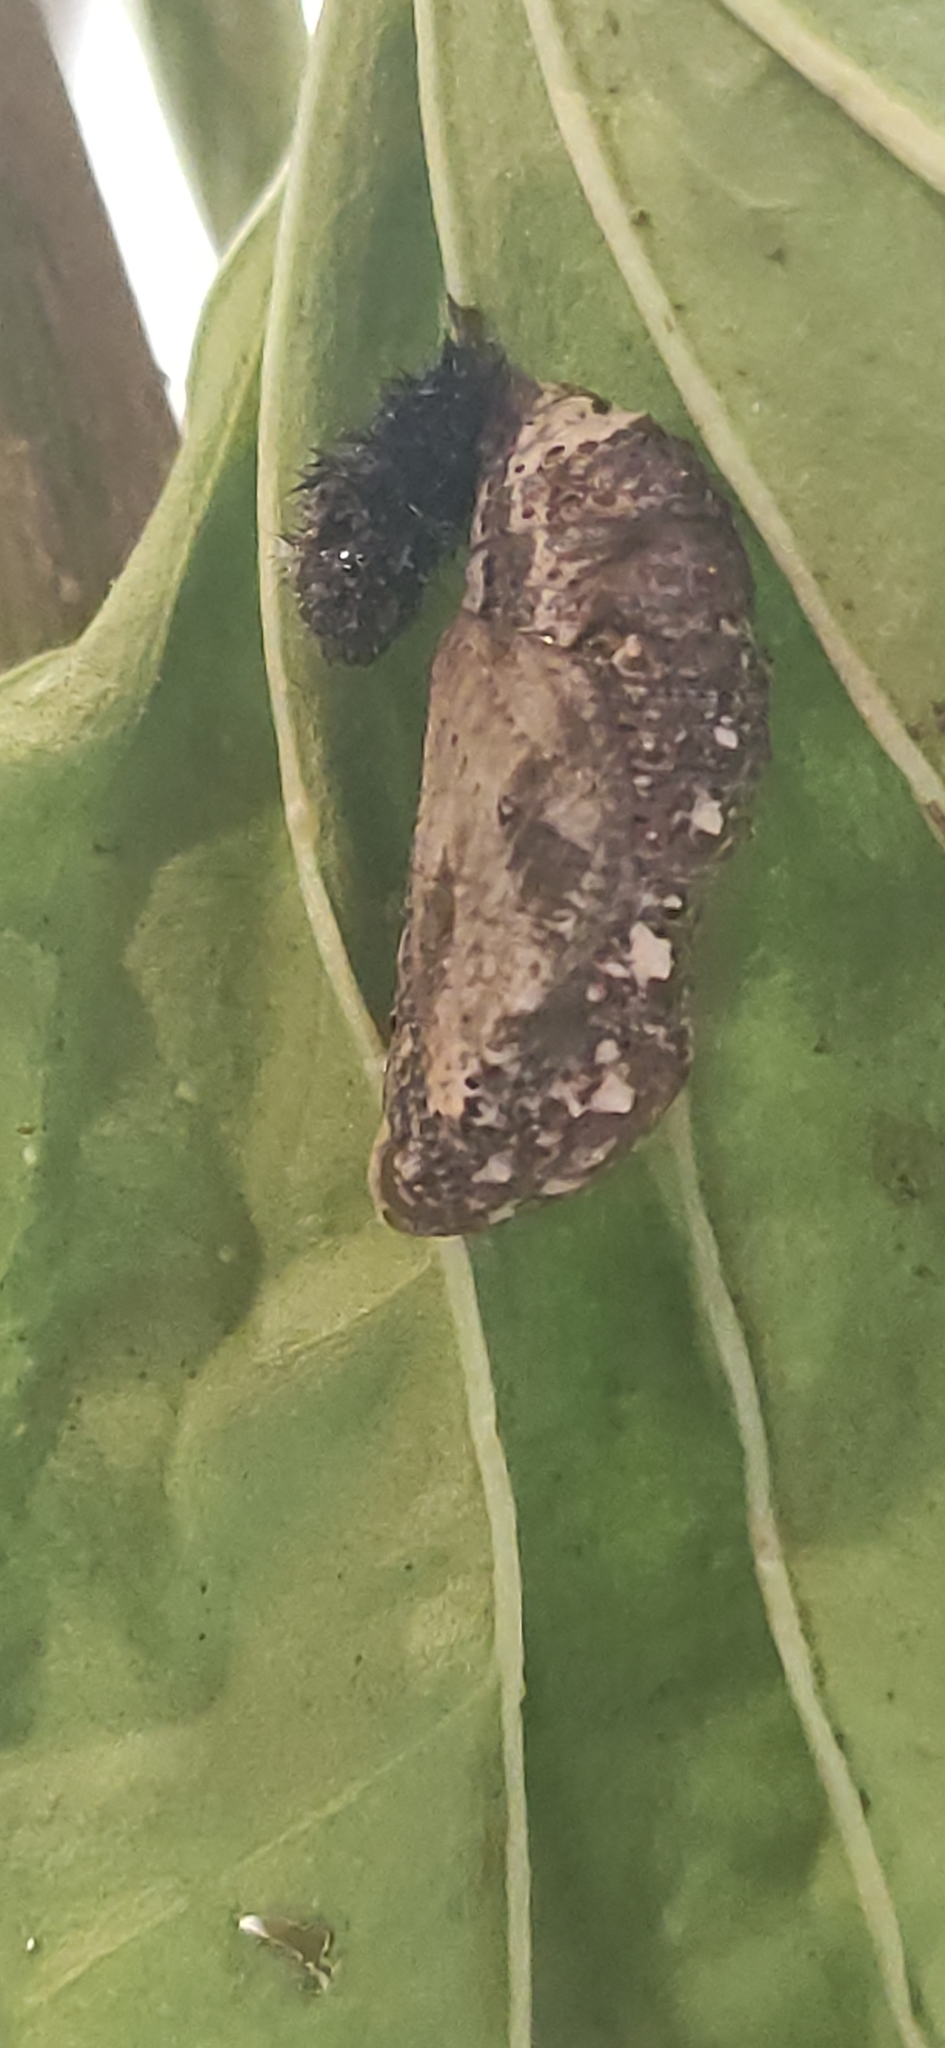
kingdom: Animalia
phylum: Arthropoda
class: Insecta
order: Lepidoptera
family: Nymphalidae
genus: Junonia
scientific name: Junonia coenia
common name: Common buckeye
